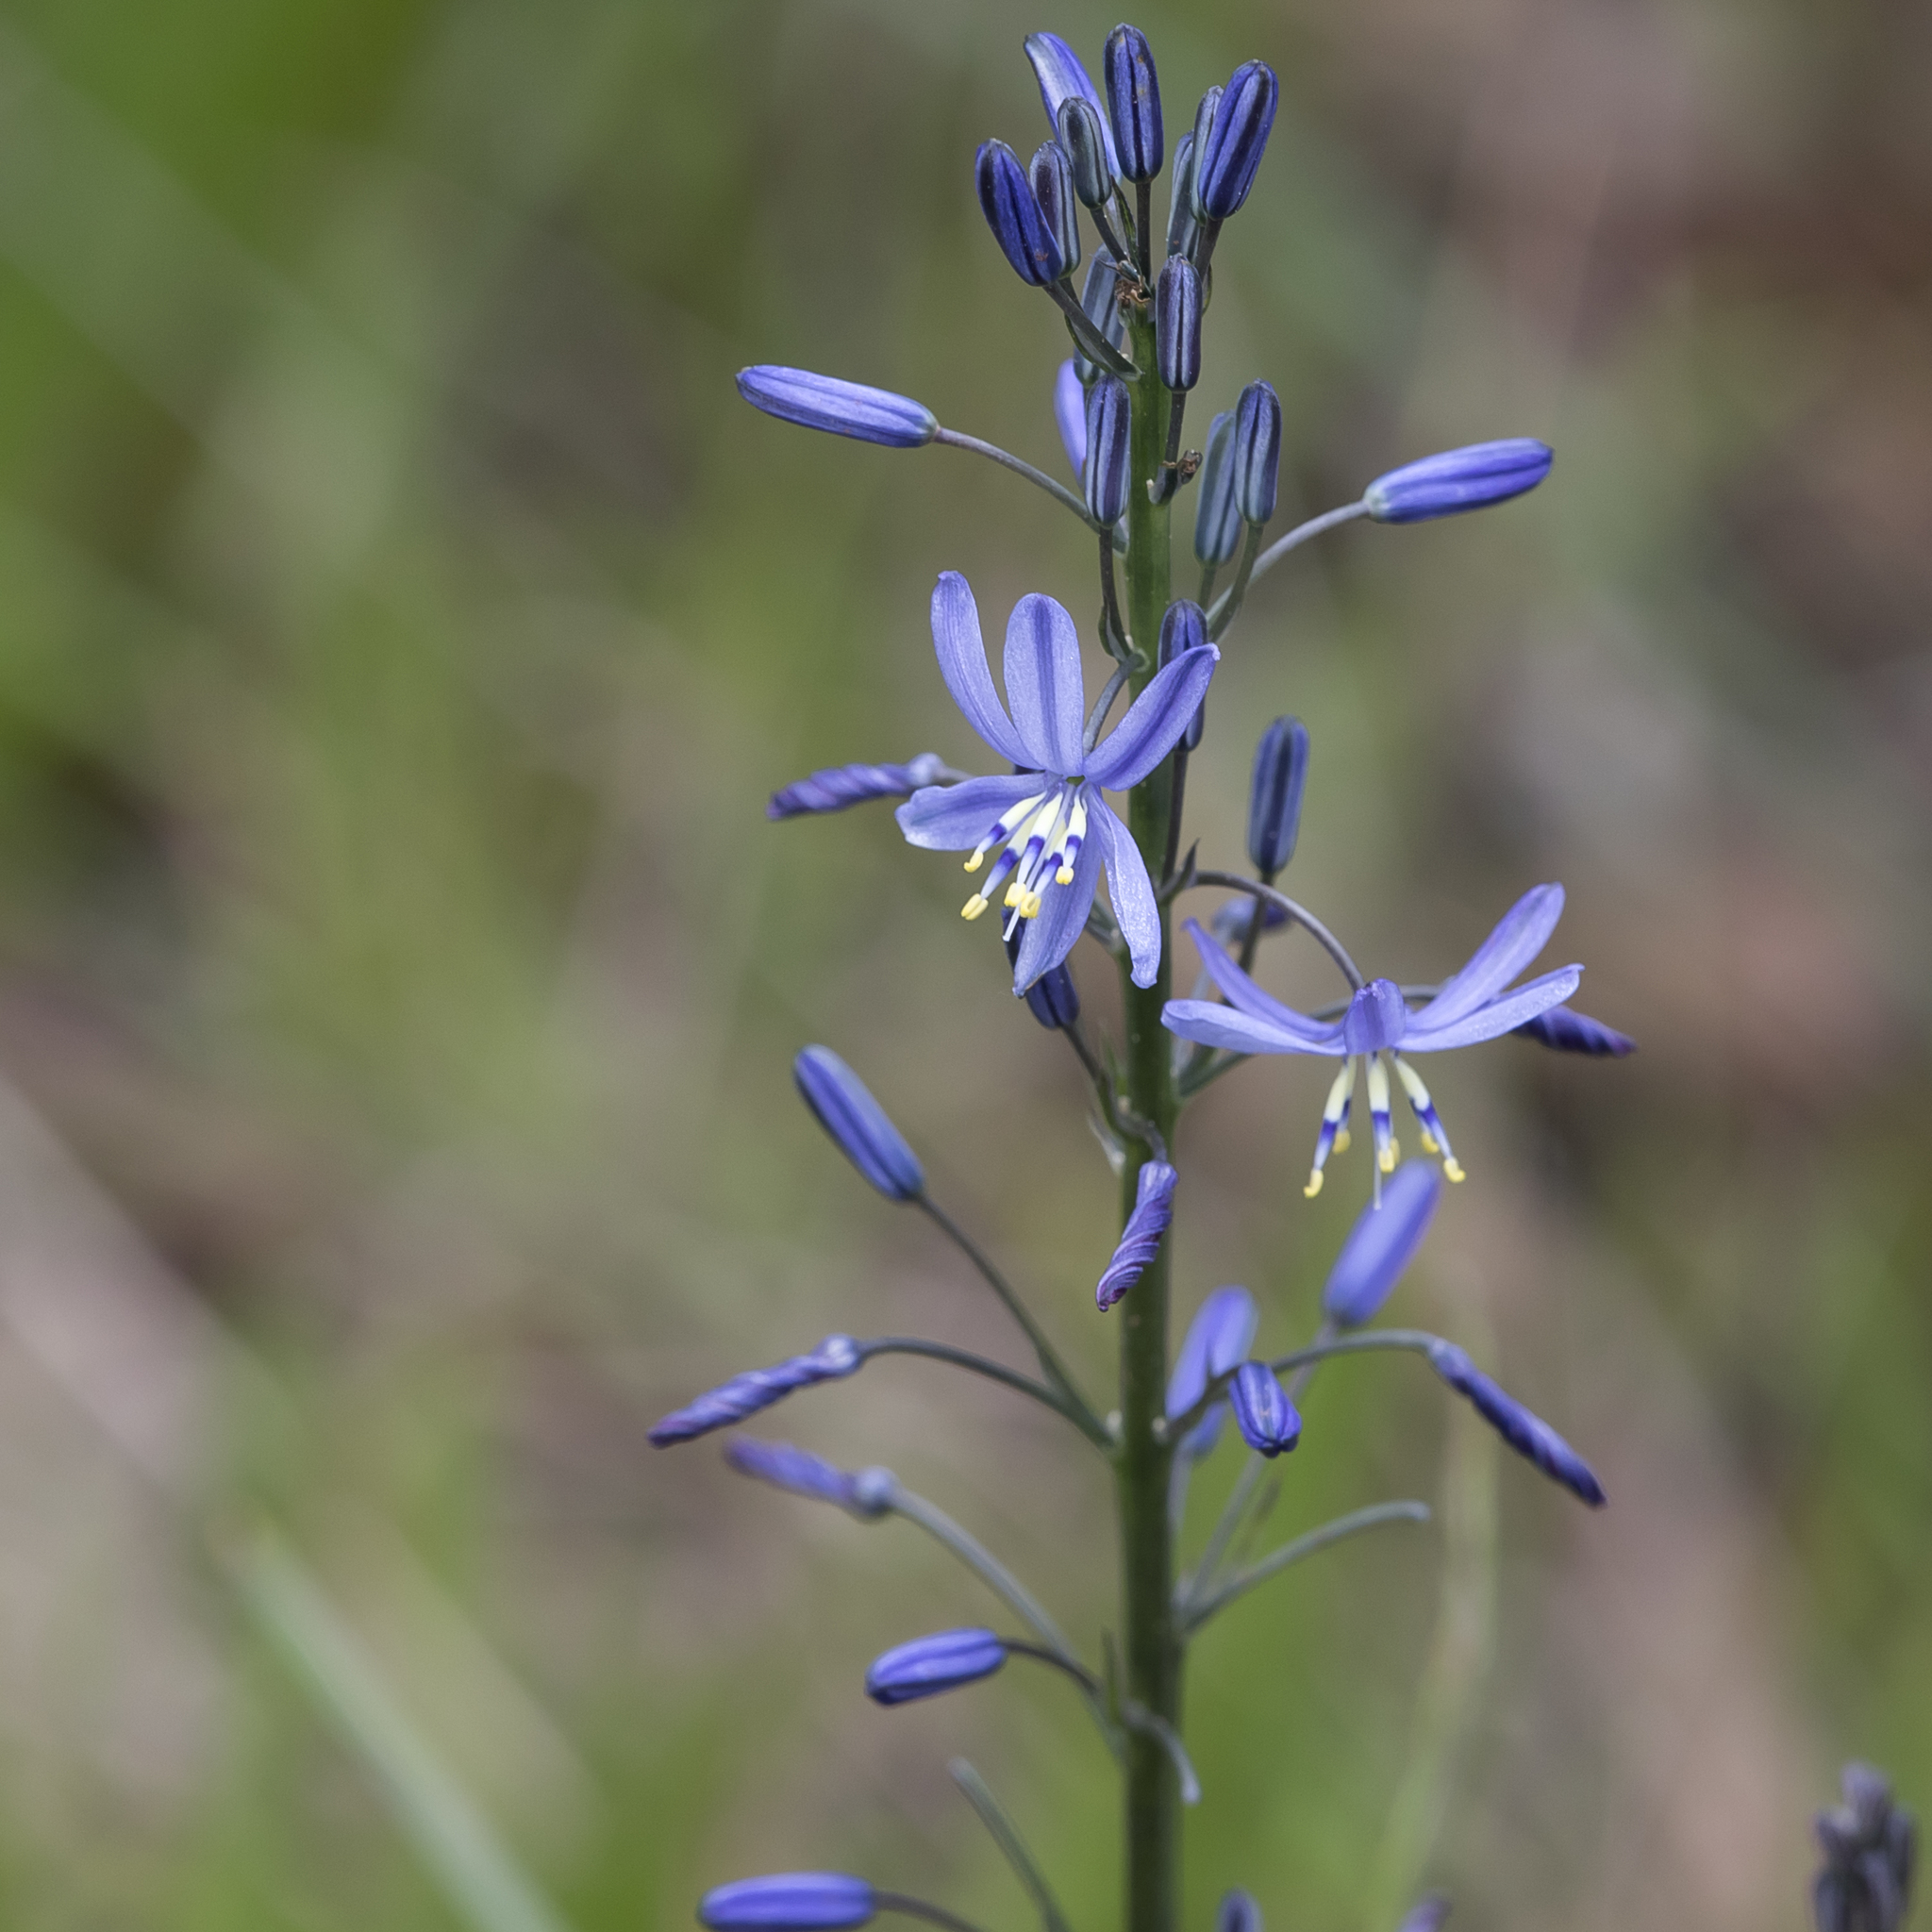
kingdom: Plantae
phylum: Tracheophyta
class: Liliopsida
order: Asparagales
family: Asphodelaceae
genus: Caesia
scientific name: Caesia calliantha
